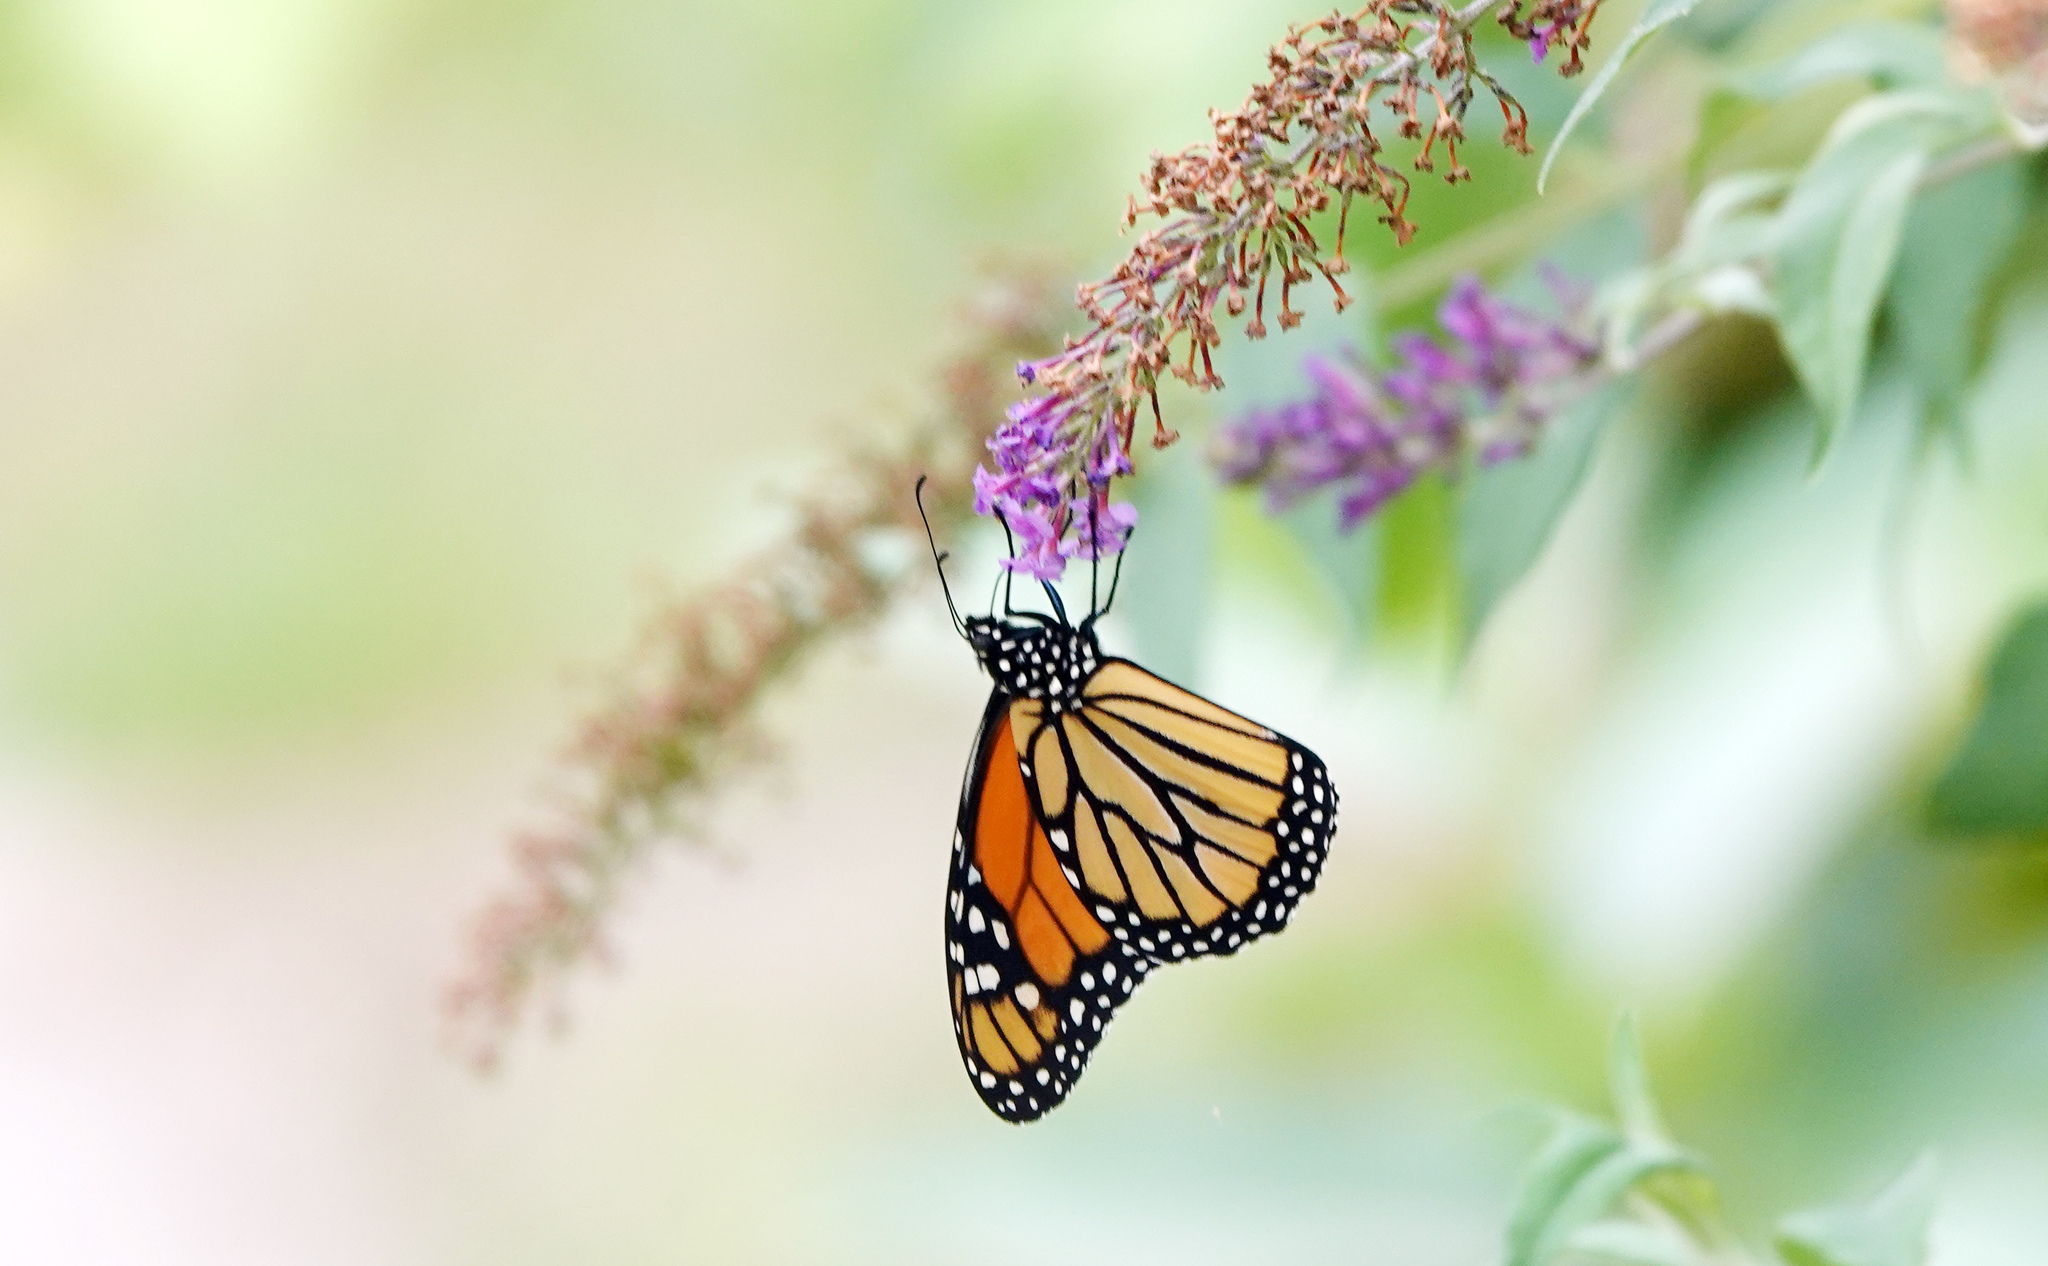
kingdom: Animalia
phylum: Arthropoda
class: Insecta
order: Lepidoptera
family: Nymphalidae
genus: Danaus
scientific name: Danaus plexippus
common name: Monarch
